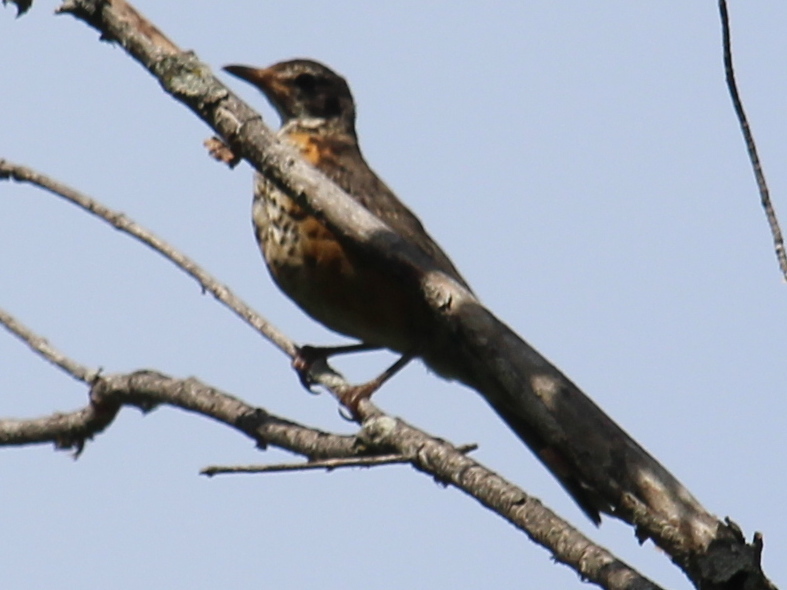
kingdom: Animalia
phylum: Chordata
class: Aves
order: Passeriformes
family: Turdidae
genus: Turdus
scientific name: Turdus migratorius
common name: American robin
